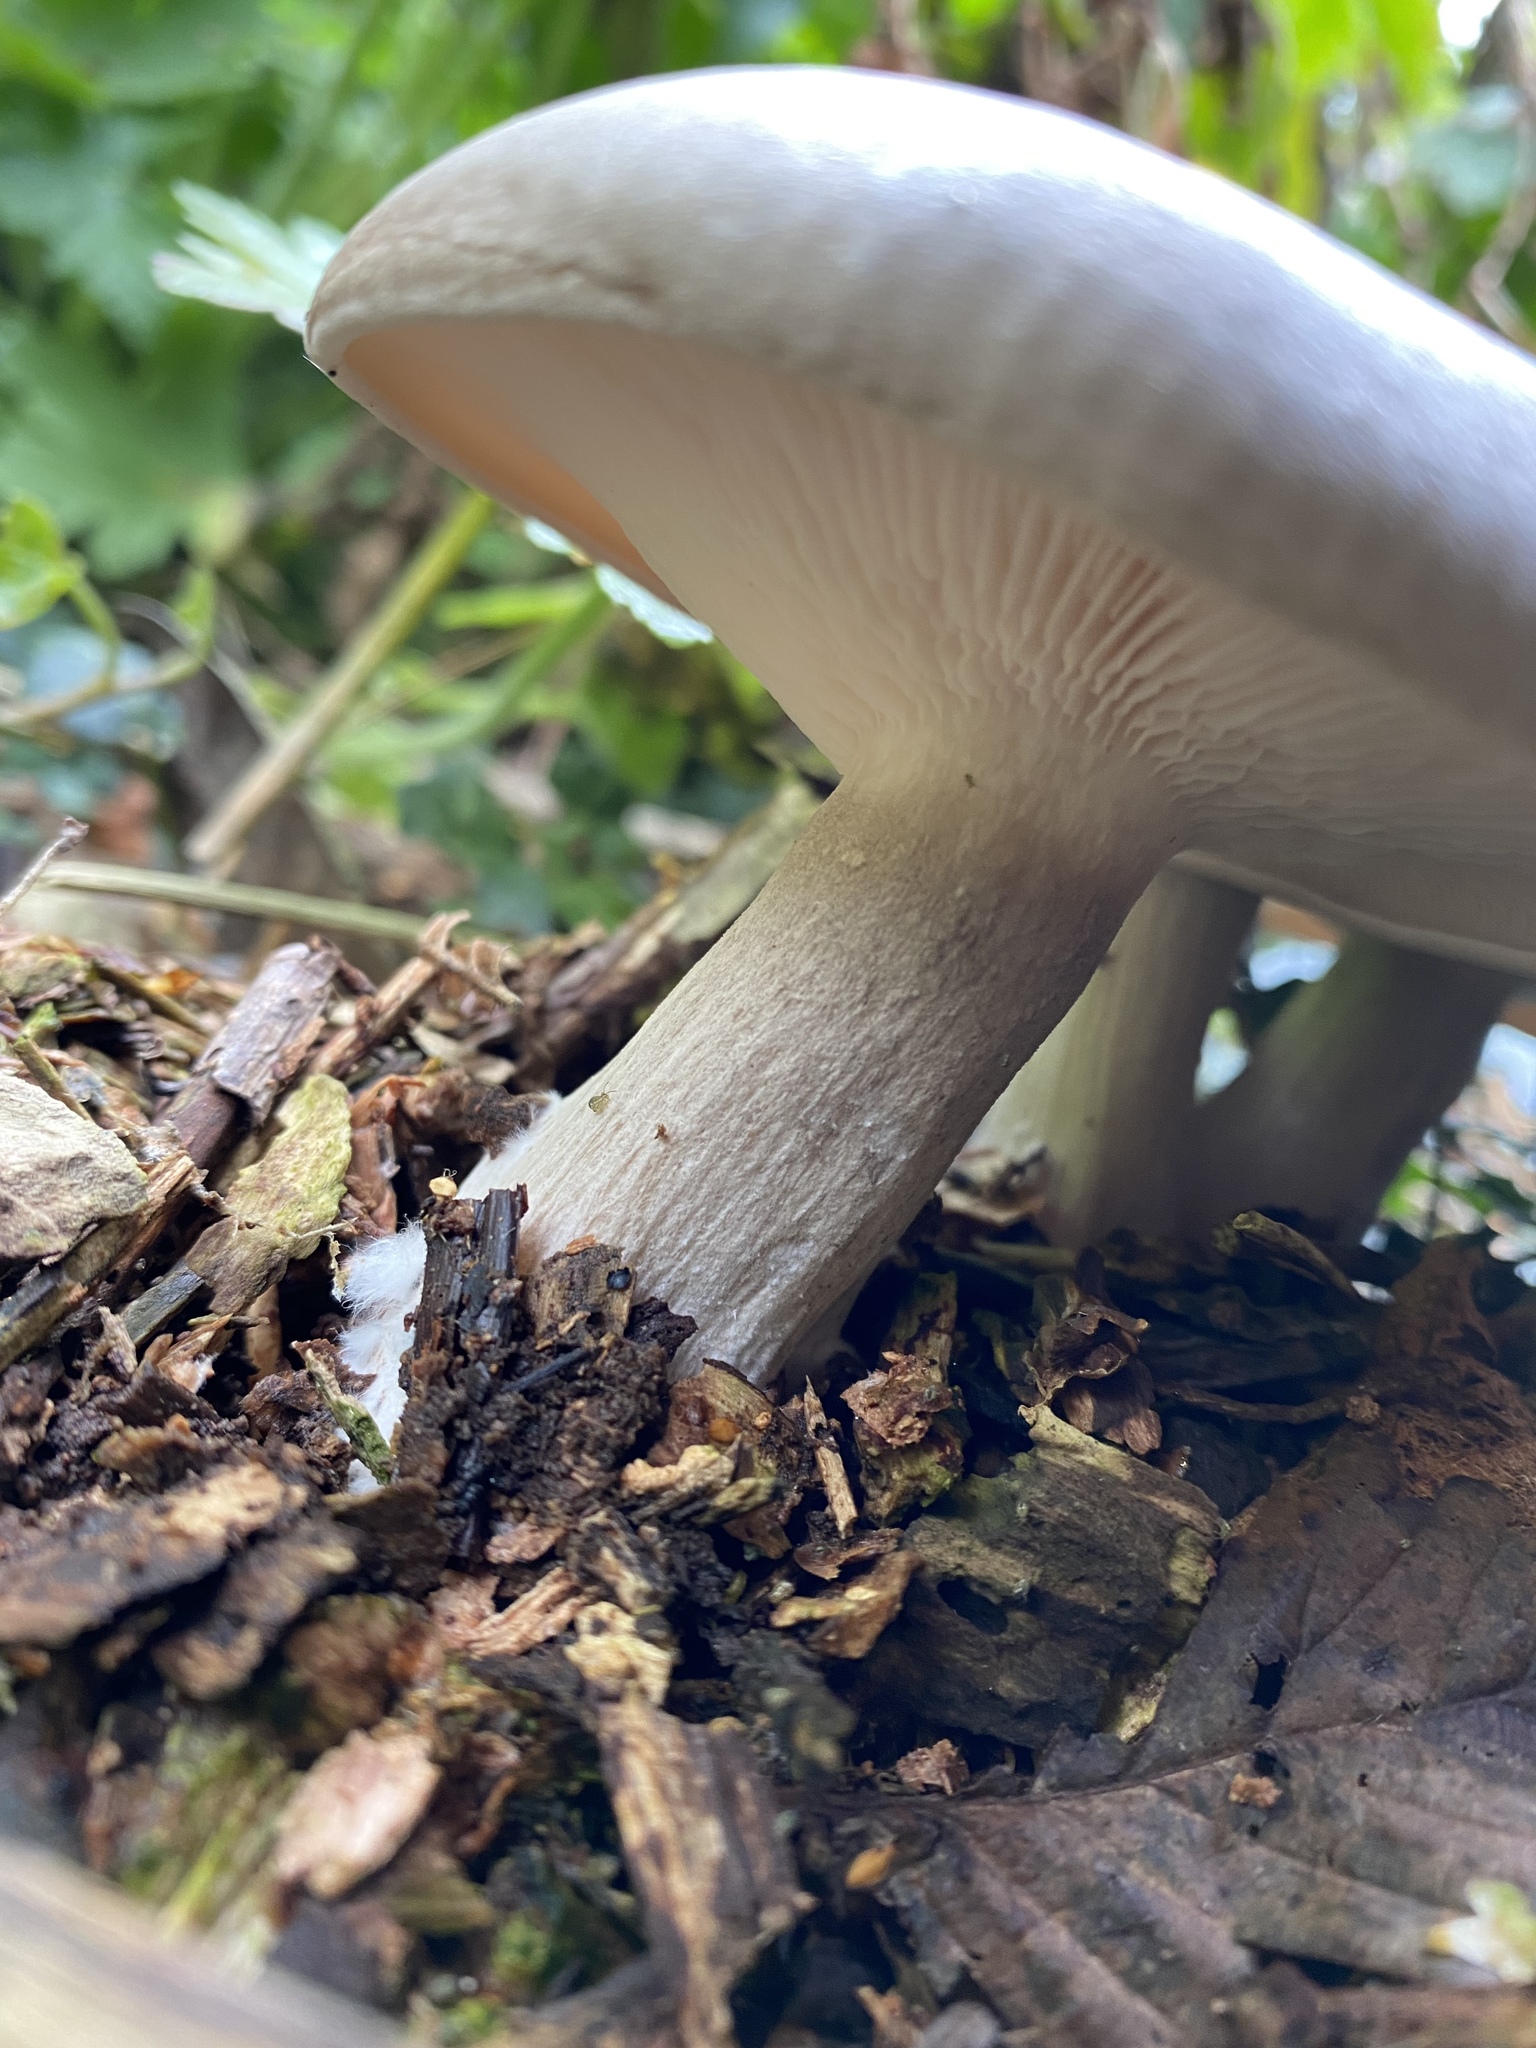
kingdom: Fungi
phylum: Basidiomycota
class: Agaricomycetes
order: Agaricales
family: Tricholomataceae
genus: Clitocybe
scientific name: Clitocybe nebularis
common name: Clouded agaric
